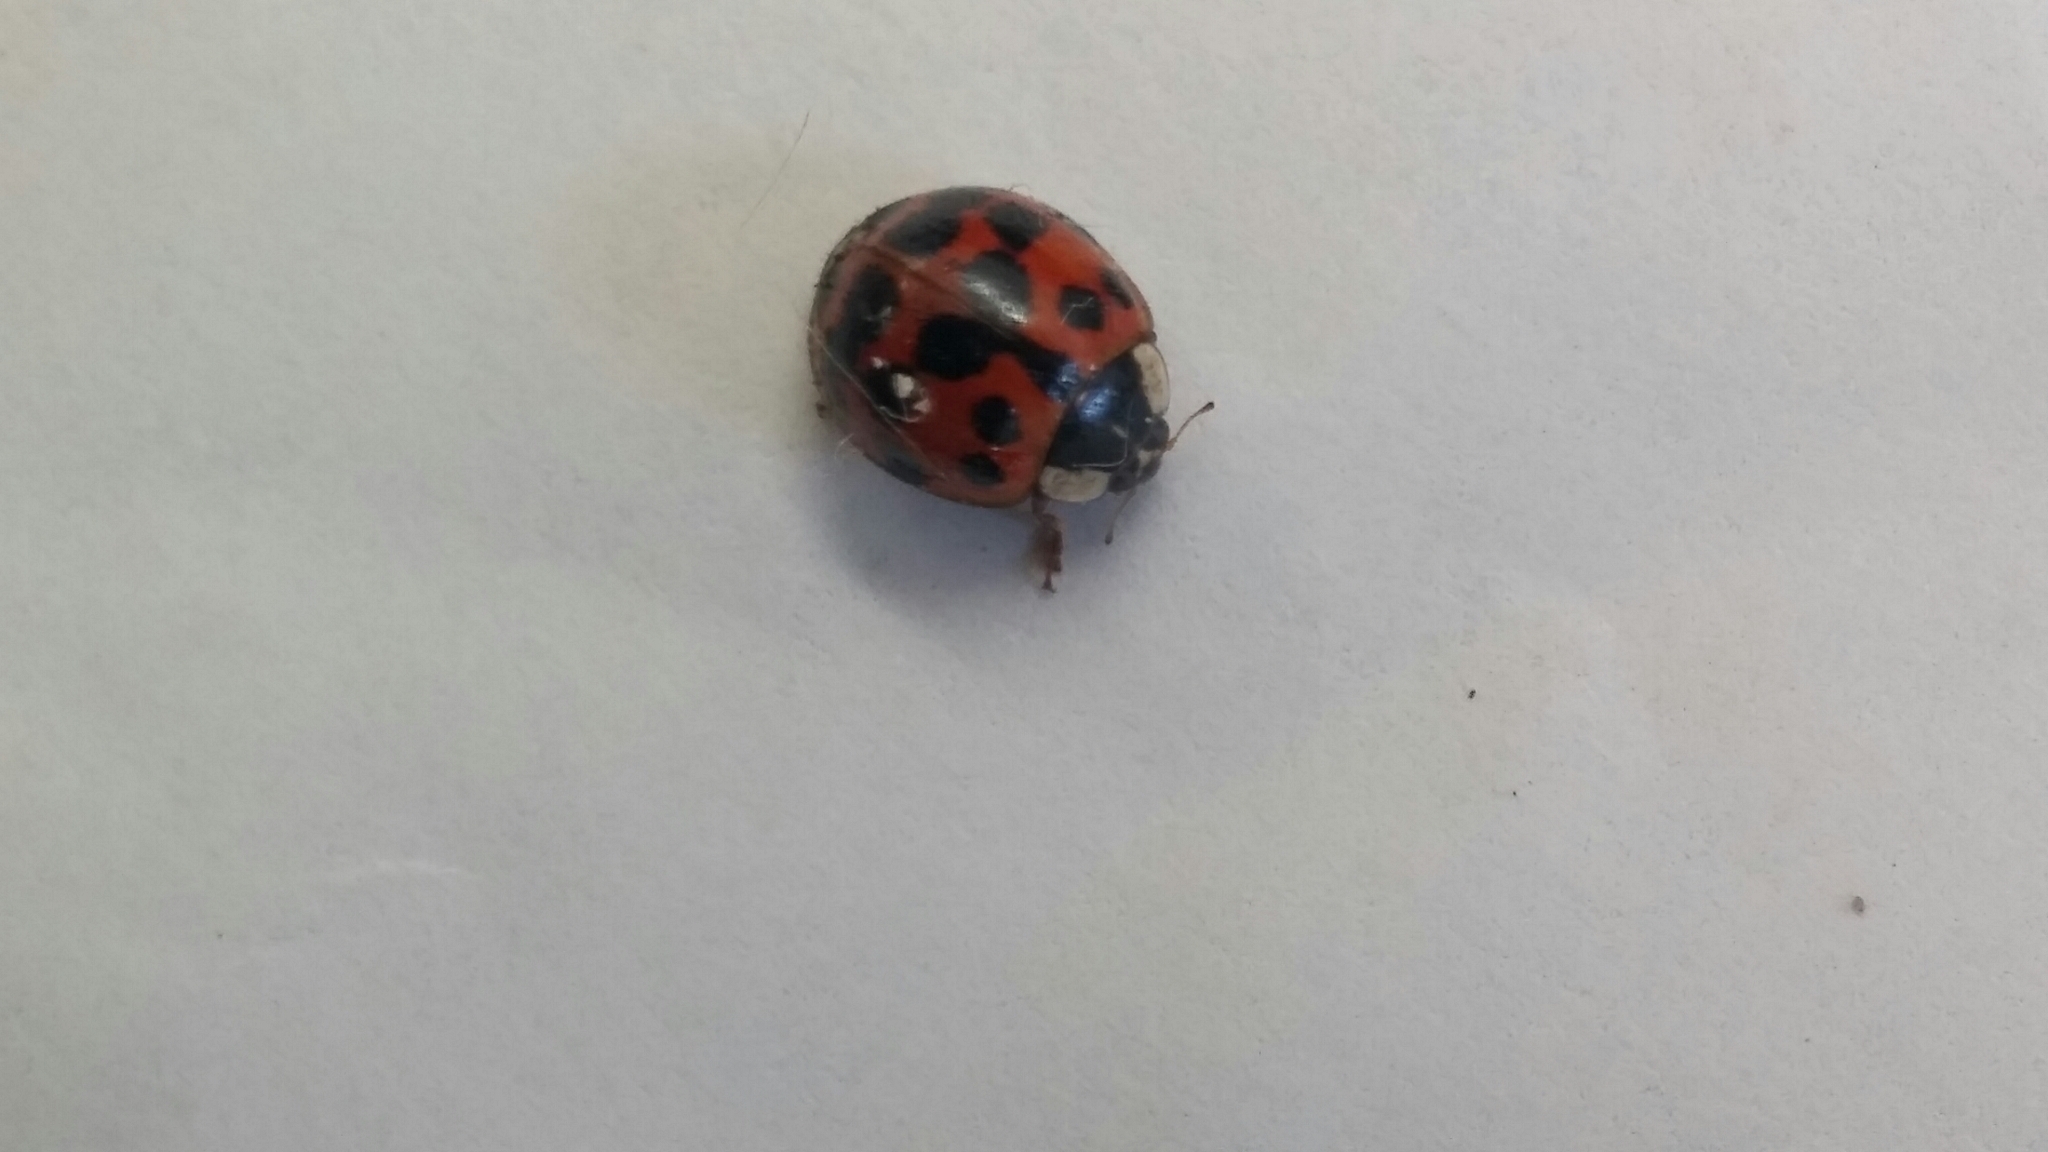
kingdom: Animalia
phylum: Arthropoda
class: Insecta
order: Coleoptera
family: Coccinellidae
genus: Harmonia
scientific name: Harmonia axyridis
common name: Harlequin ladybird
